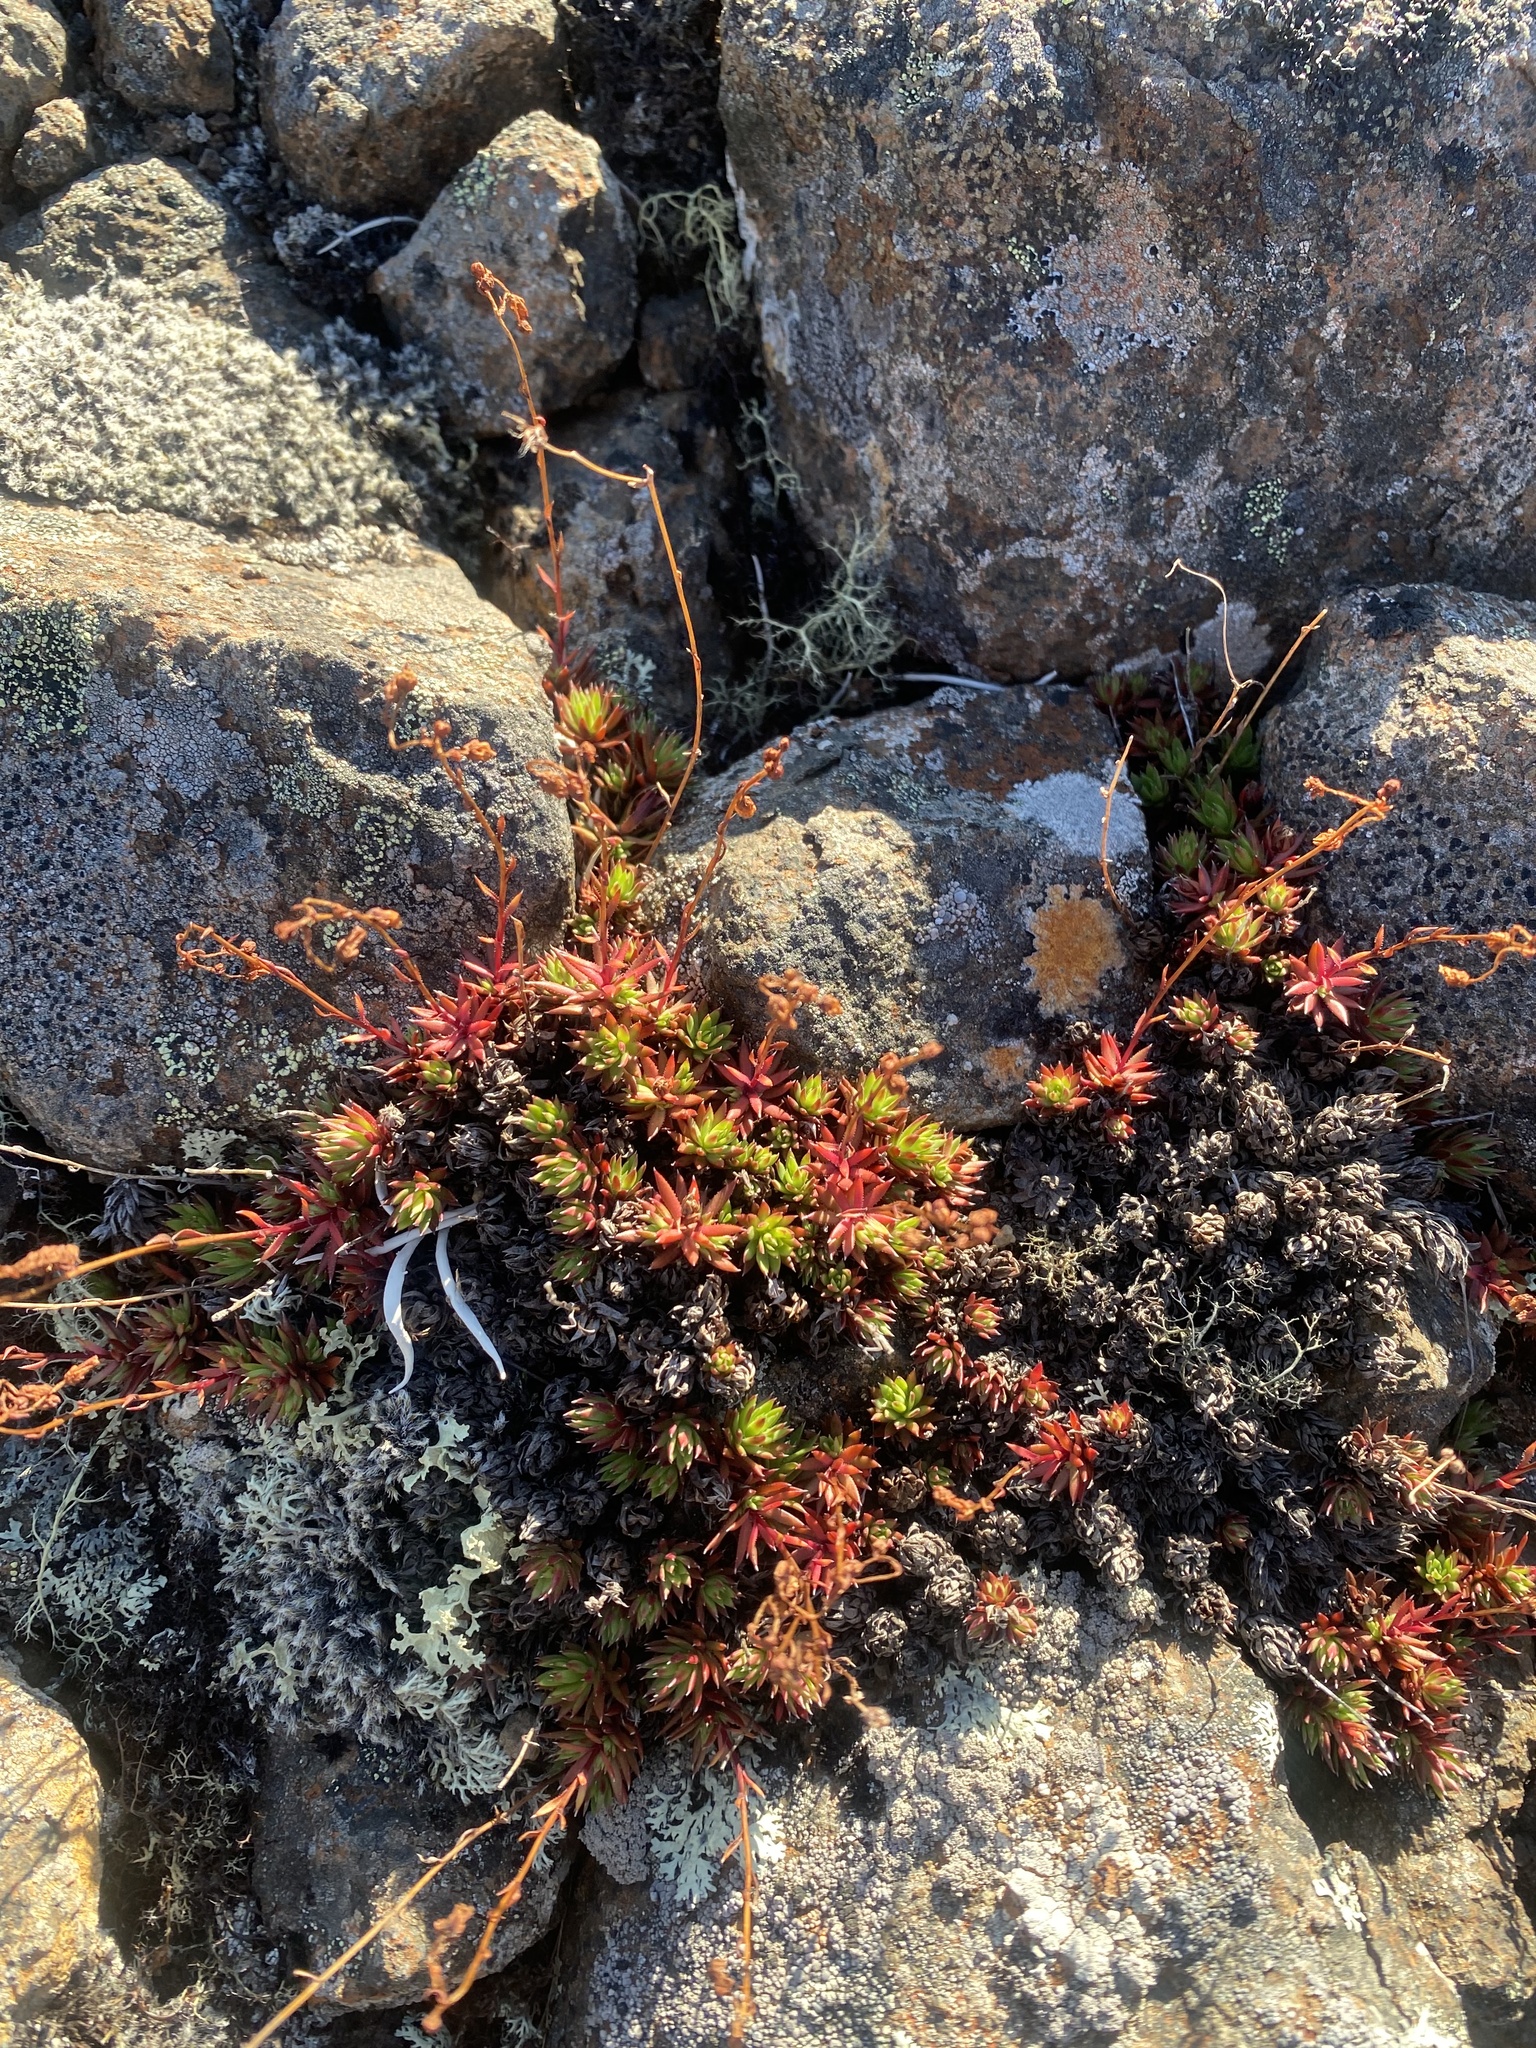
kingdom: Plantae
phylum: Tracheophyta
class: Magnoliopsida
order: Saxifragales
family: Saxifragaceae
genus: Saxifraga
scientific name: Saxifraga
